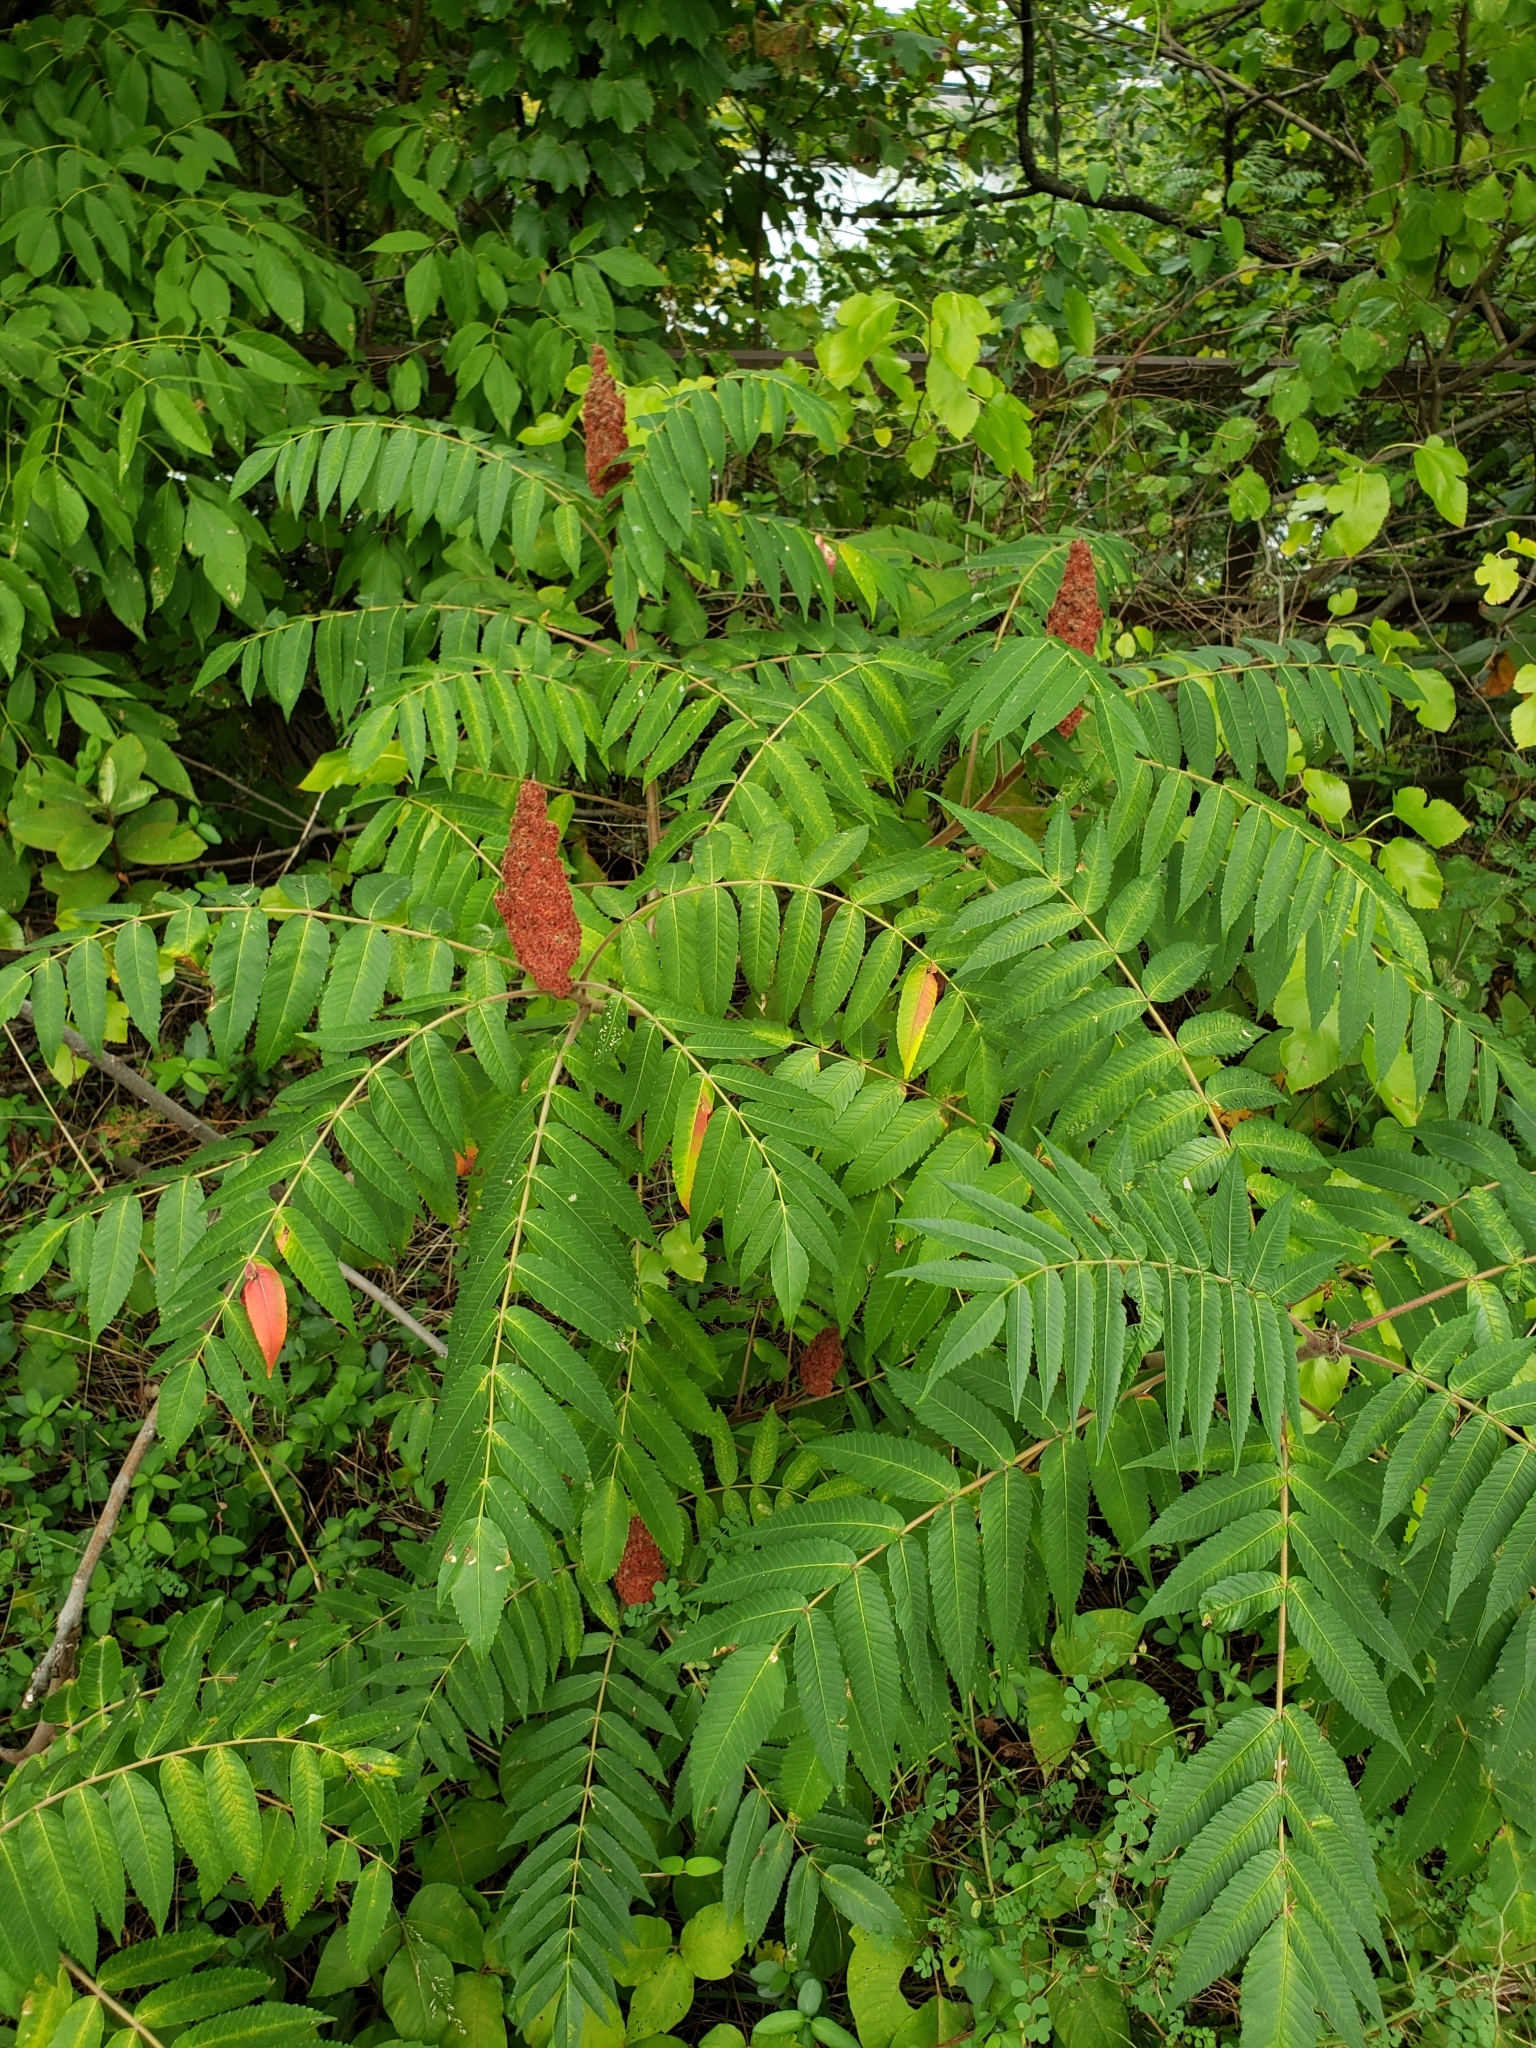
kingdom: Plantae
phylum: Tracheophyta
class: Magnoliopsida
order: Sapindales
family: Anacardiaceae
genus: Rhus
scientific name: Rhus typhina
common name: Staghorn sumac
